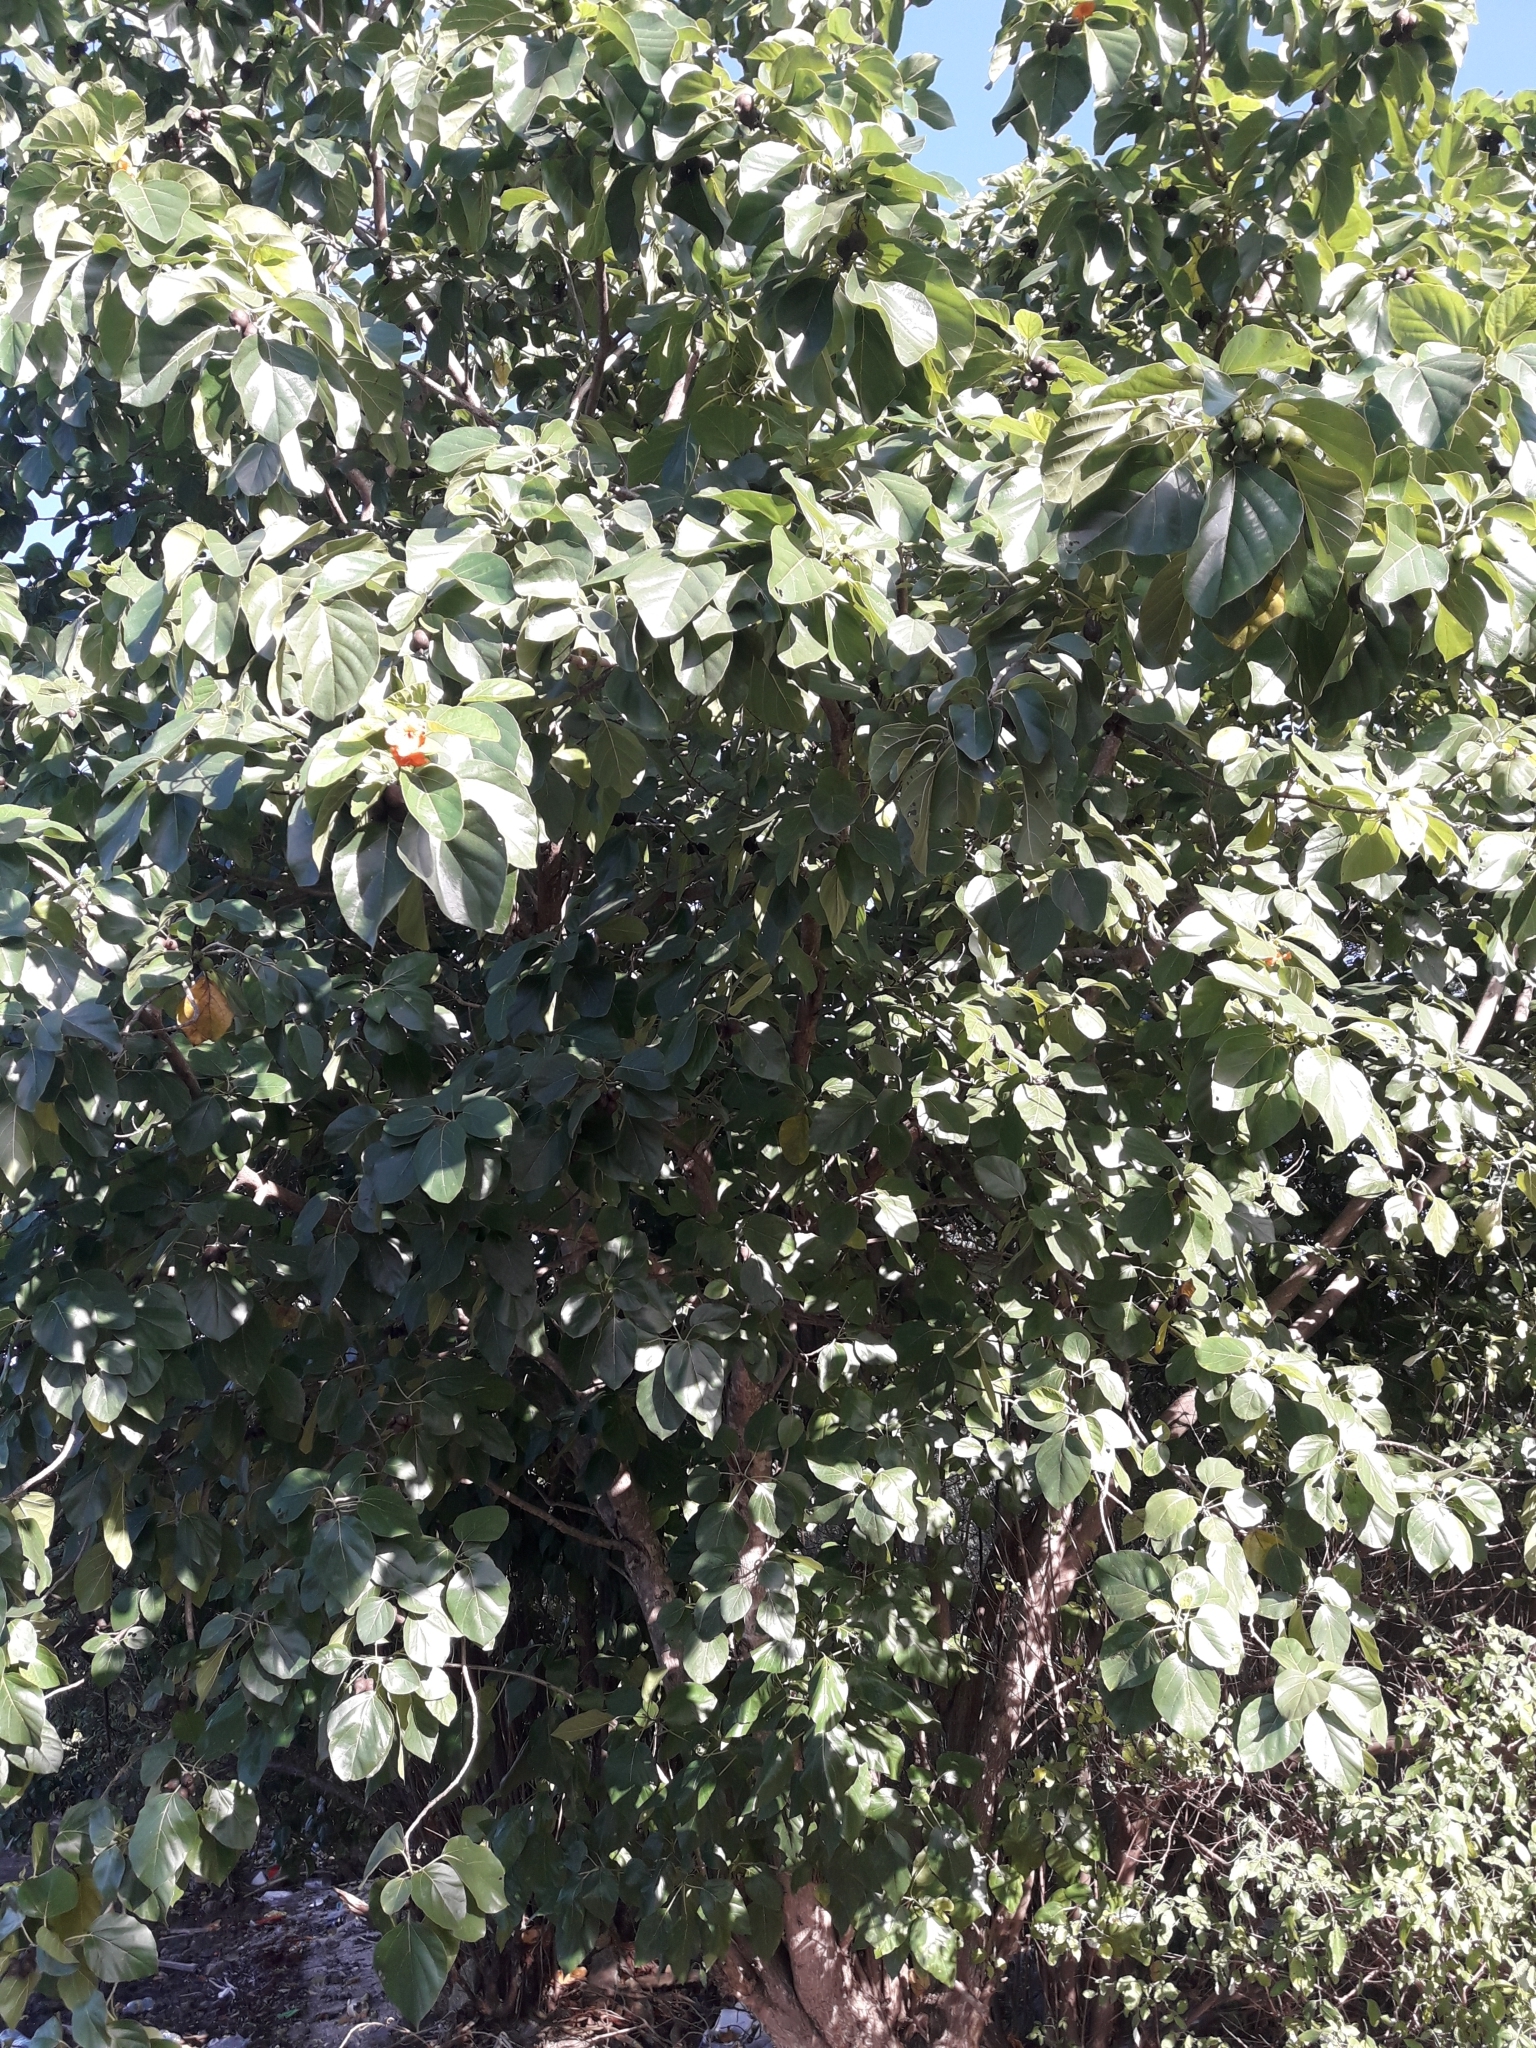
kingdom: Plantae
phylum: Tracheophyta
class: Magnoliopsida
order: Boraginales
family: Cordiaceae
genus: Cordia
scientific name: Cordia subcordata
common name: Mareer
